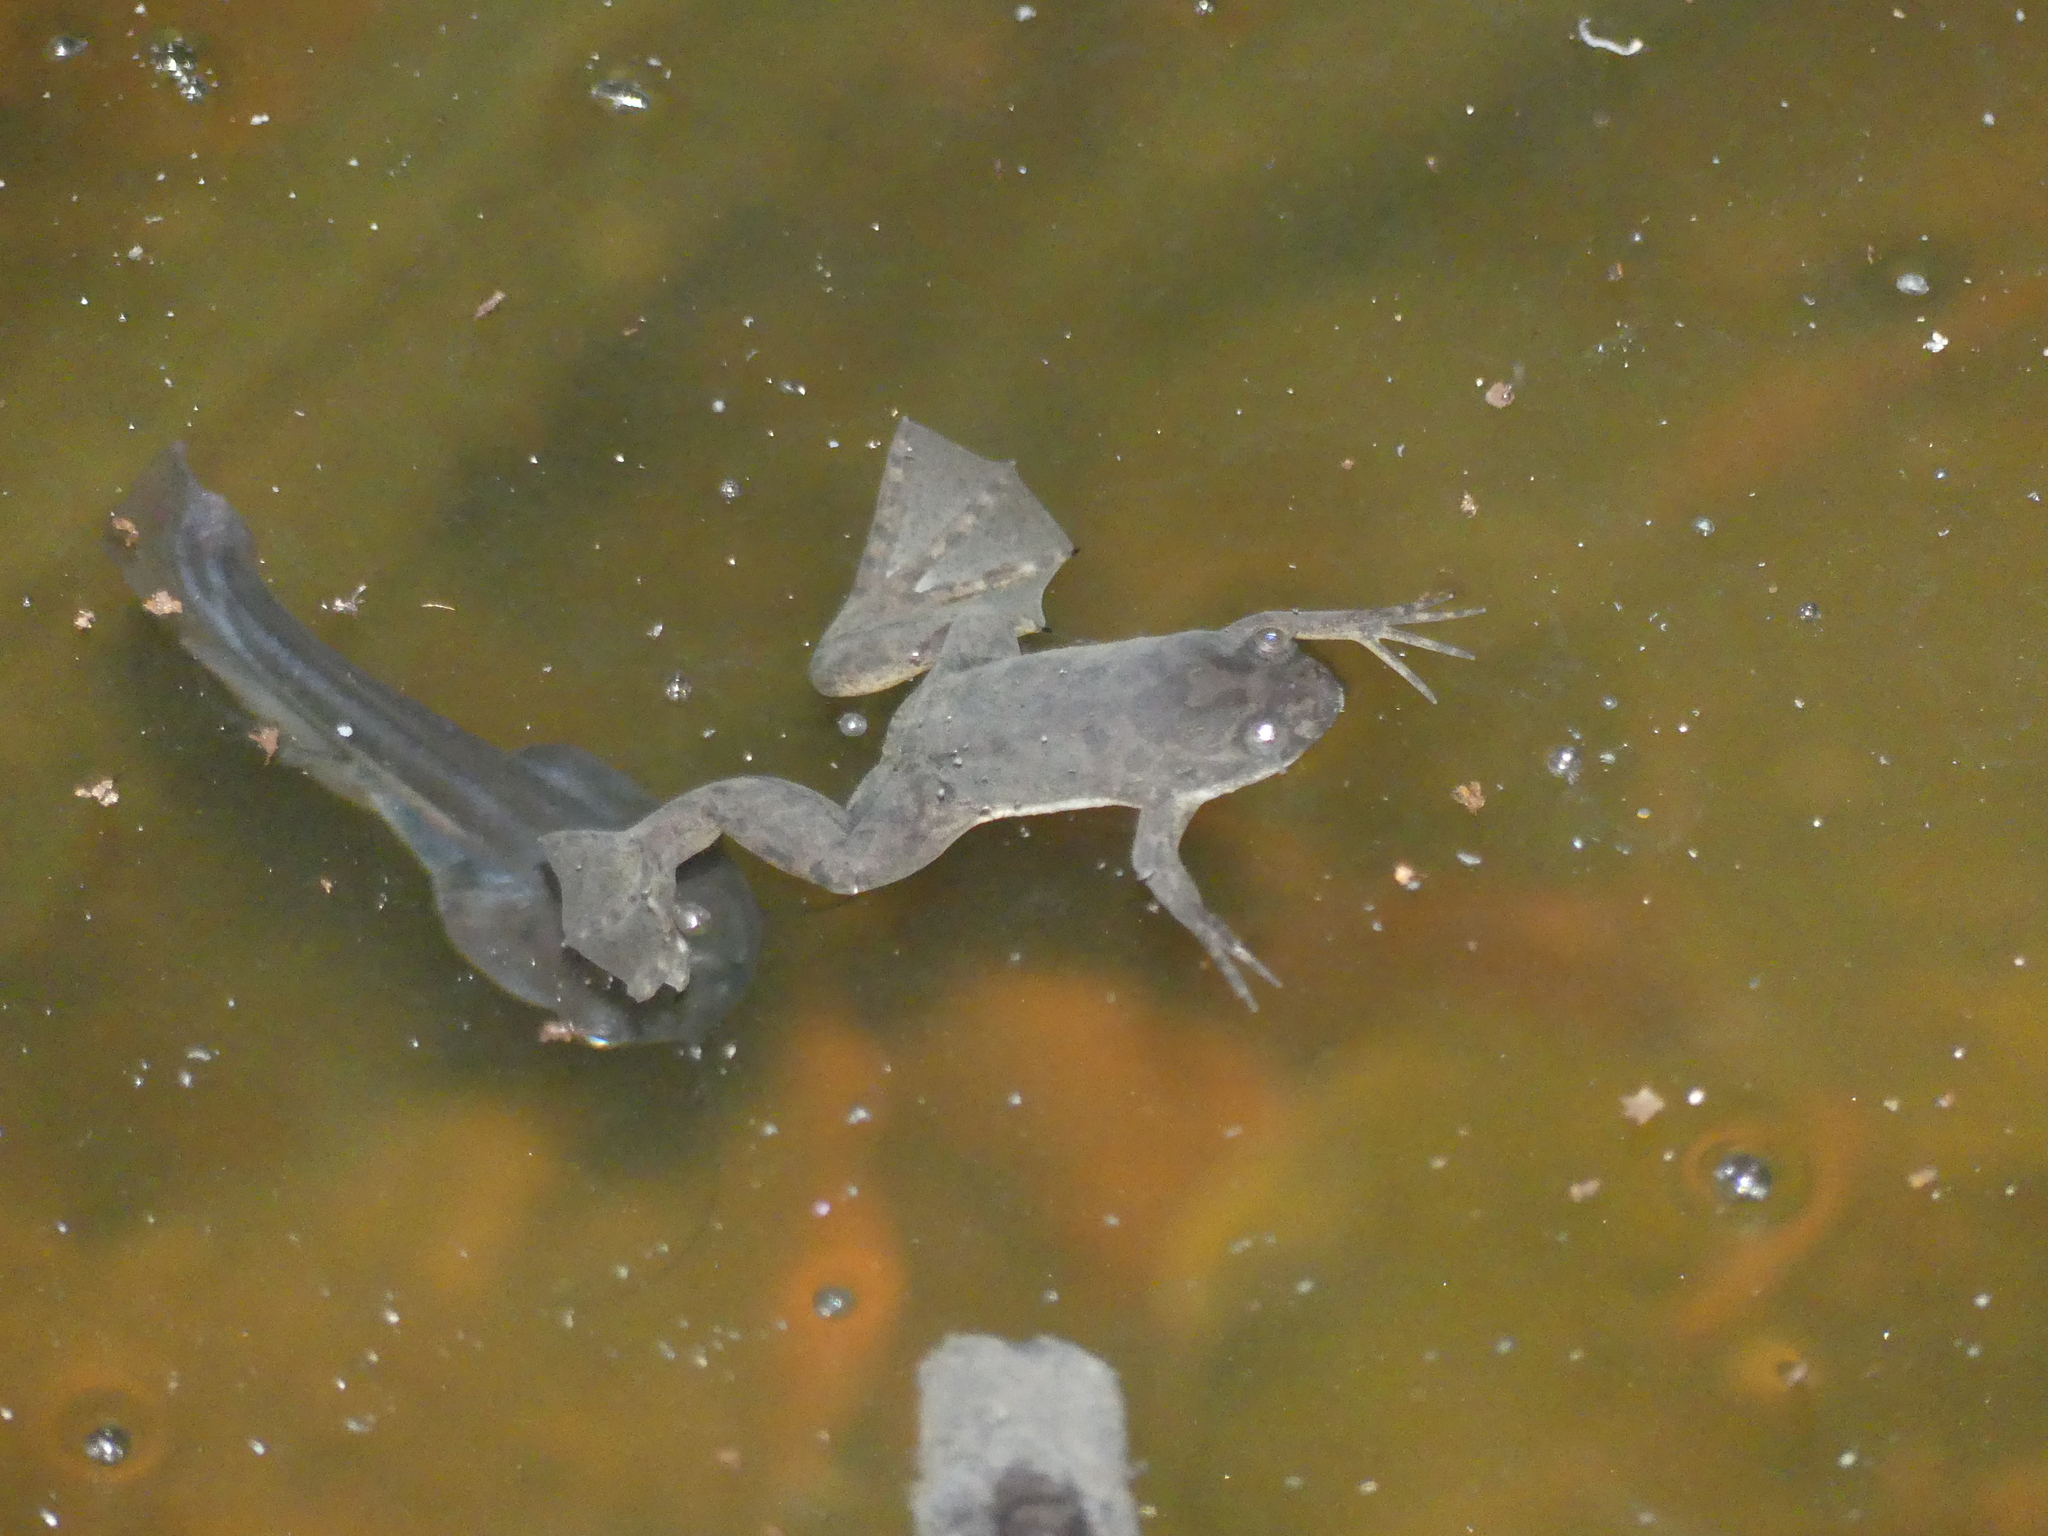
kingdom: Animalia
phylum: Chordata
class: Amphibia
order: Anura
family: Pipidae
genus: Xenopus
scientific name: Xenopus muelleri
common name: Muller's clawed frog
